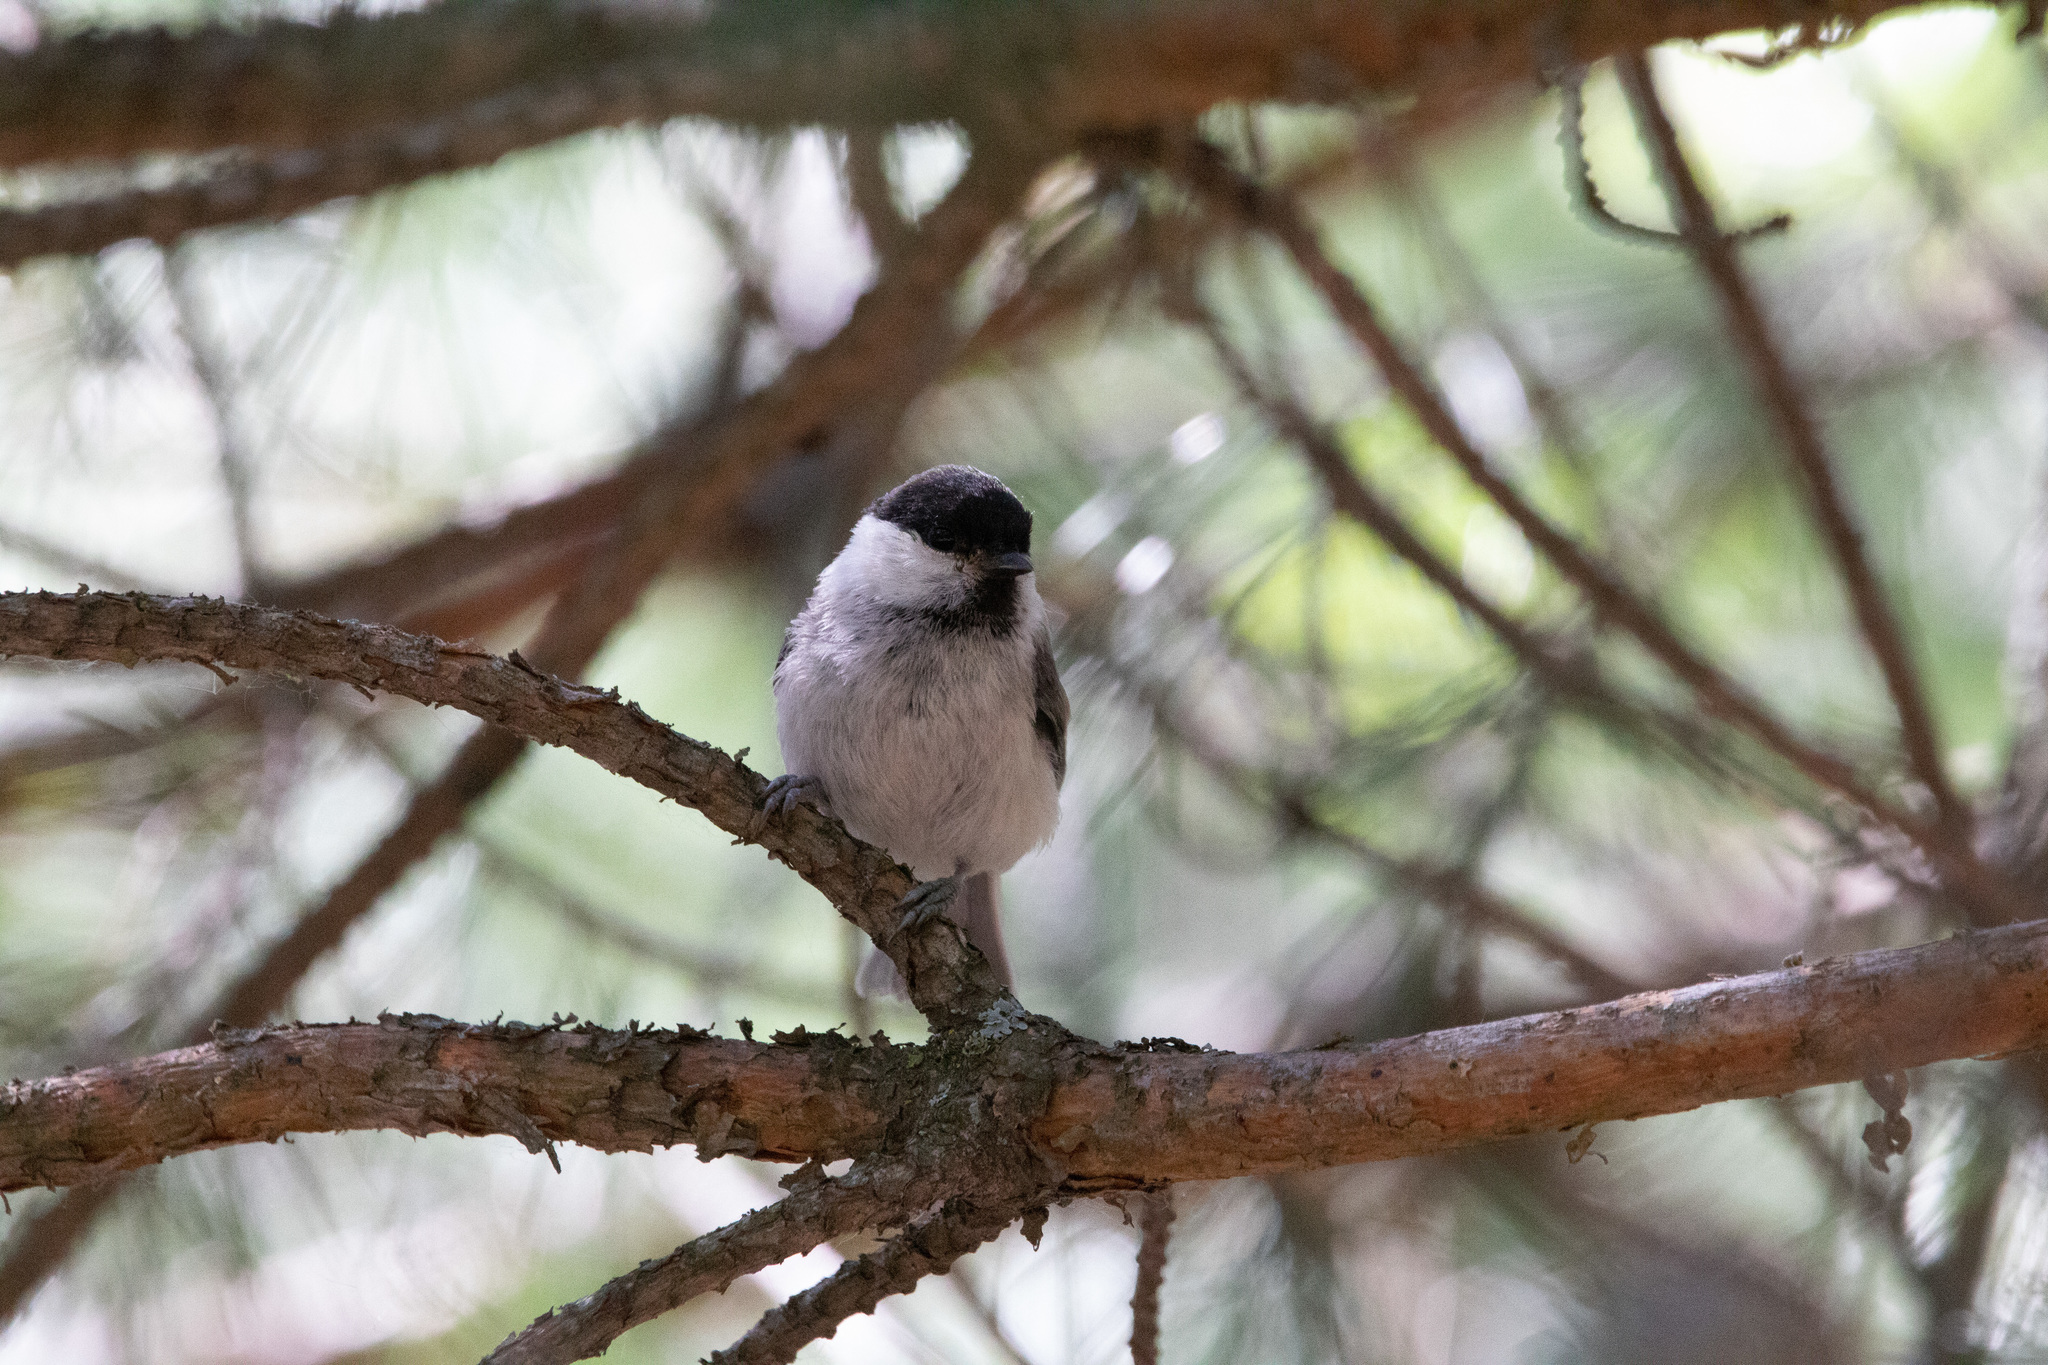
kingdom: Animalia
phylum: Chordata
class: Aves
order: Passeriformes
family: Paridae
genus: Poecile
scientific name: Poecile montanus
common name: Willow tit
